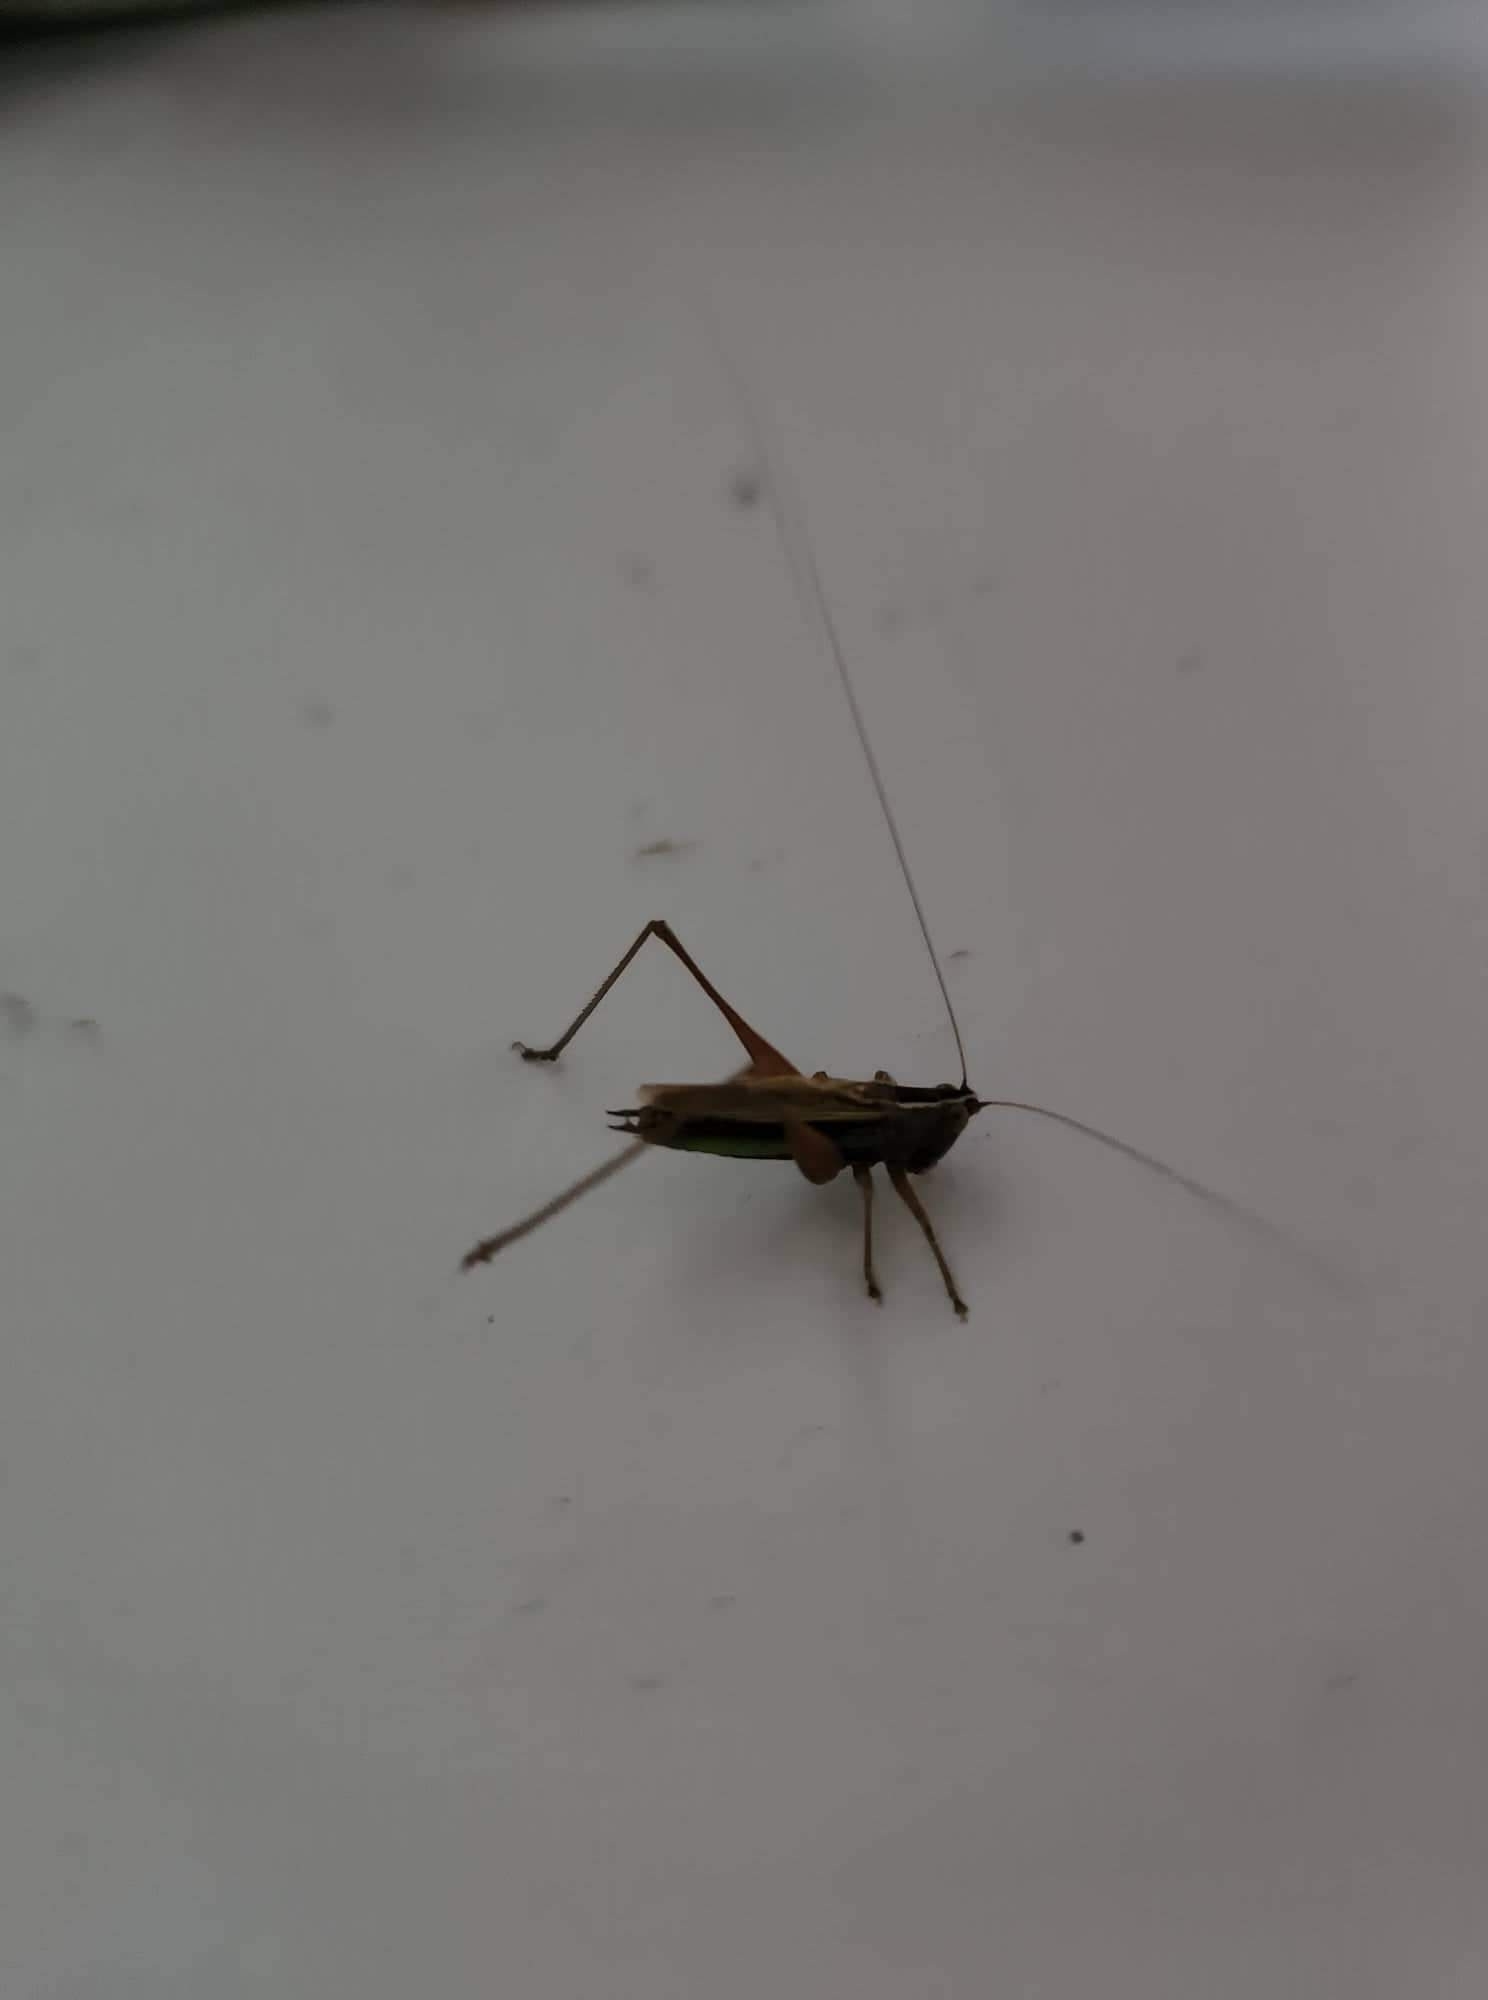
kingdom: Animalia
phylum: Arthropoda
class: Insecta
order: Orthoptera
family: Tettigoniidae
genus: Conocephalus
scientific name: Conocephalus albescens
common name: Whitish meadow katydid
